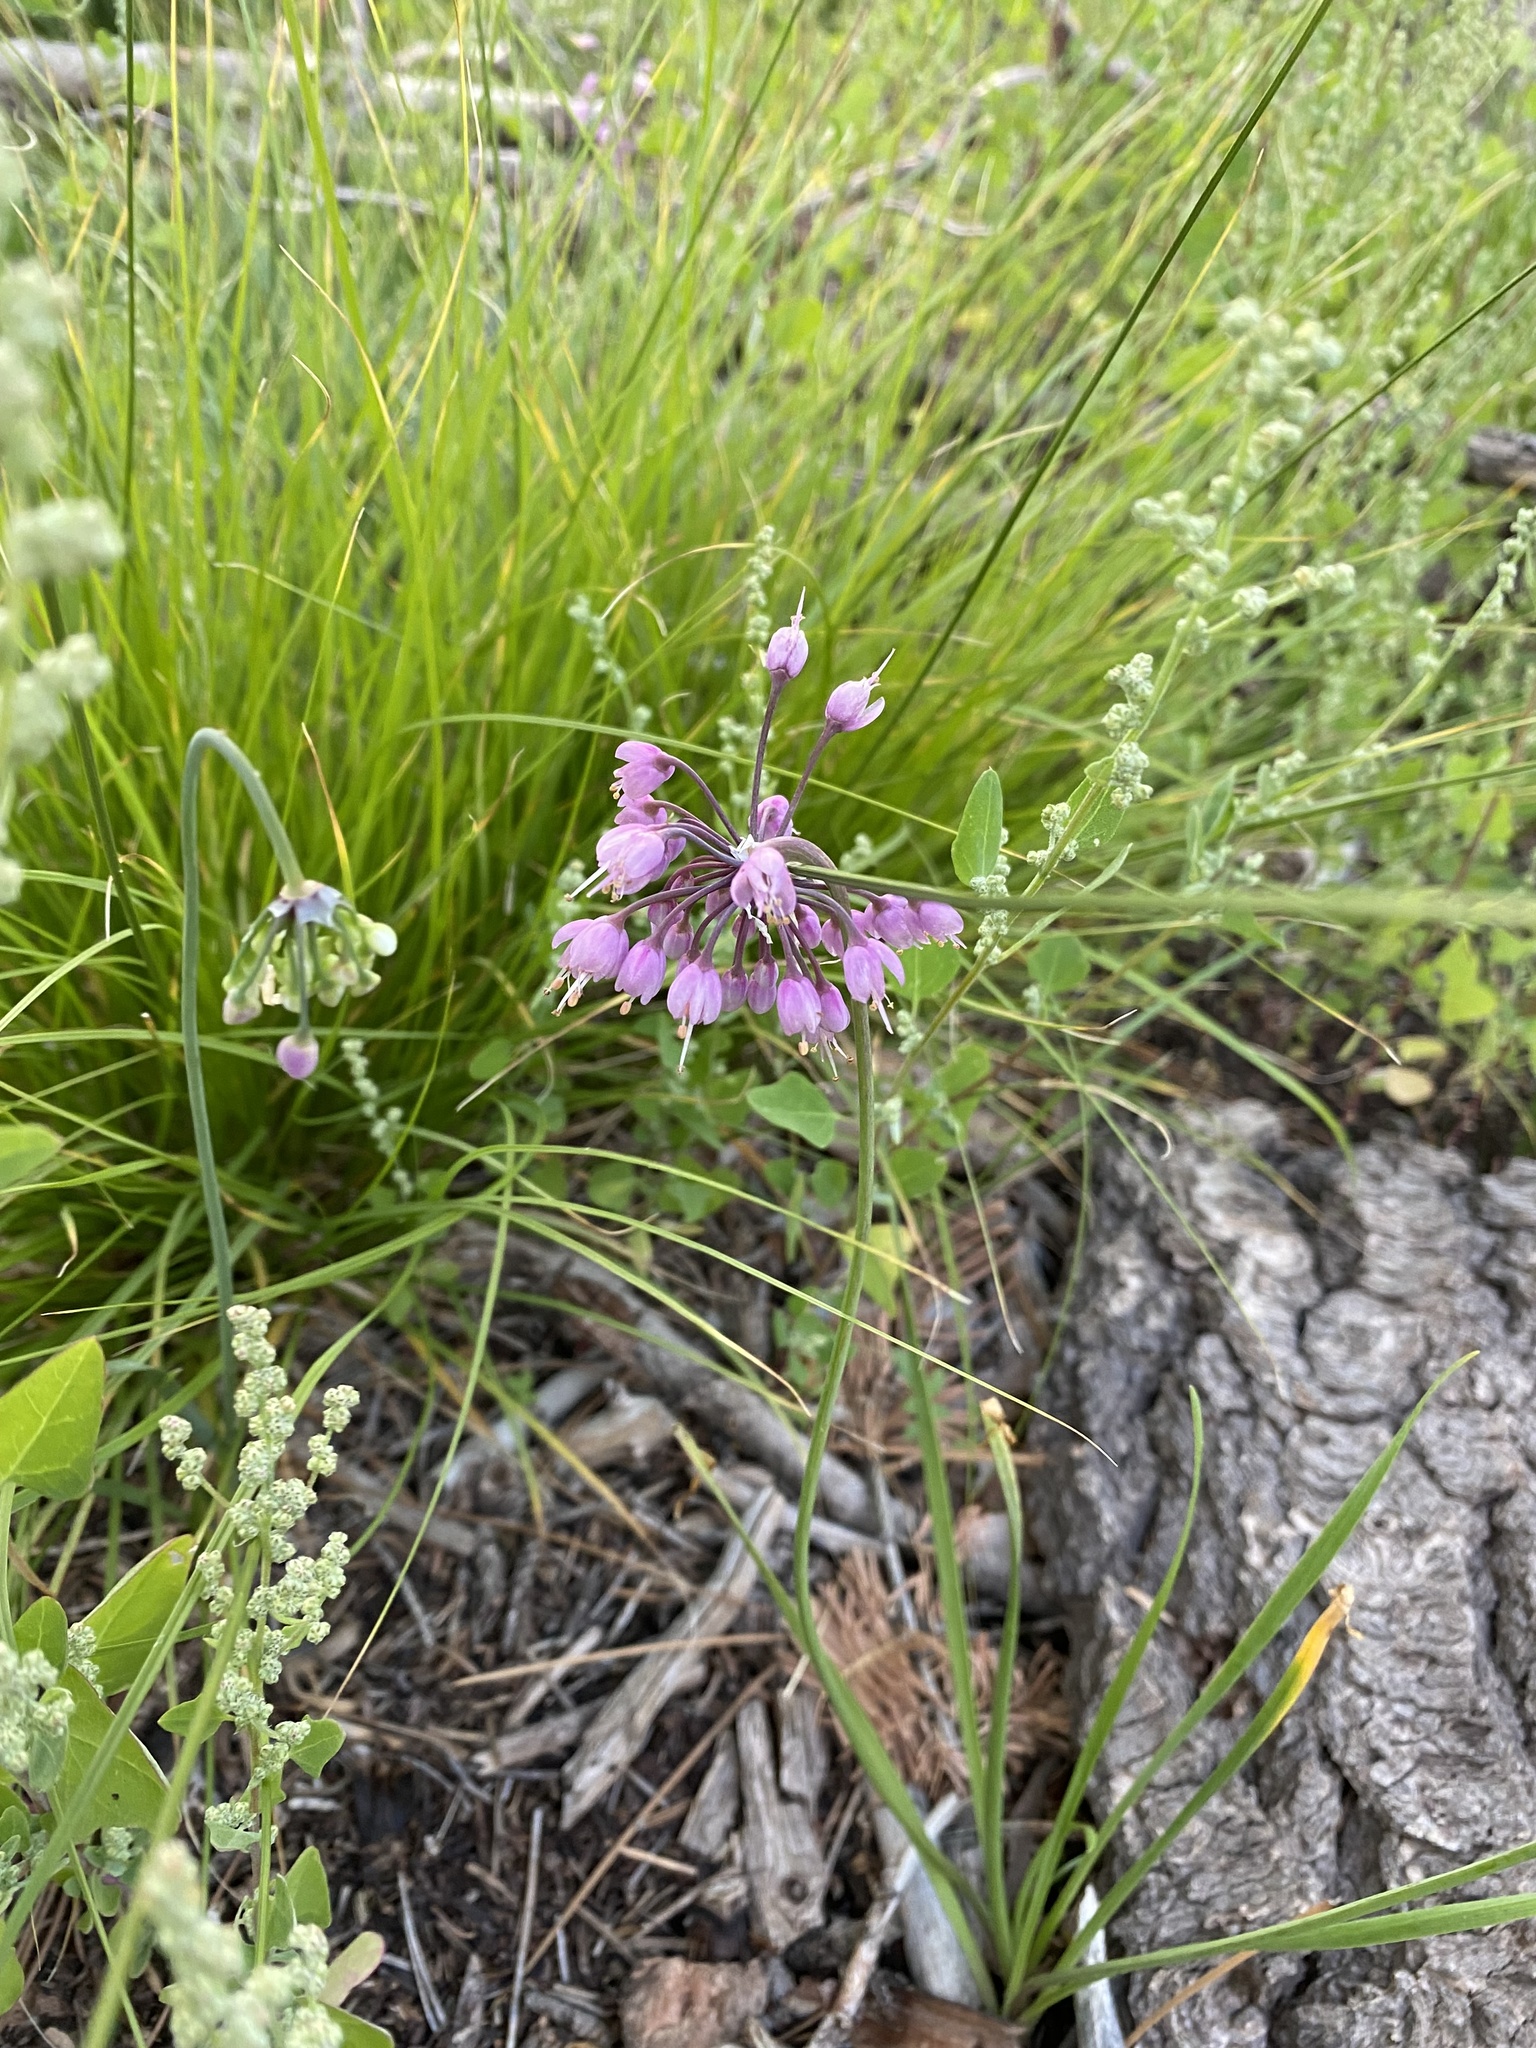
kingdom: Plantae
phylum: Tracheophyta
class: Liliopsida
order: Asparagales
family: Amaryllidaceae
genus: Allium
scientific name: Allium cernuum
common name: Nodding onion
